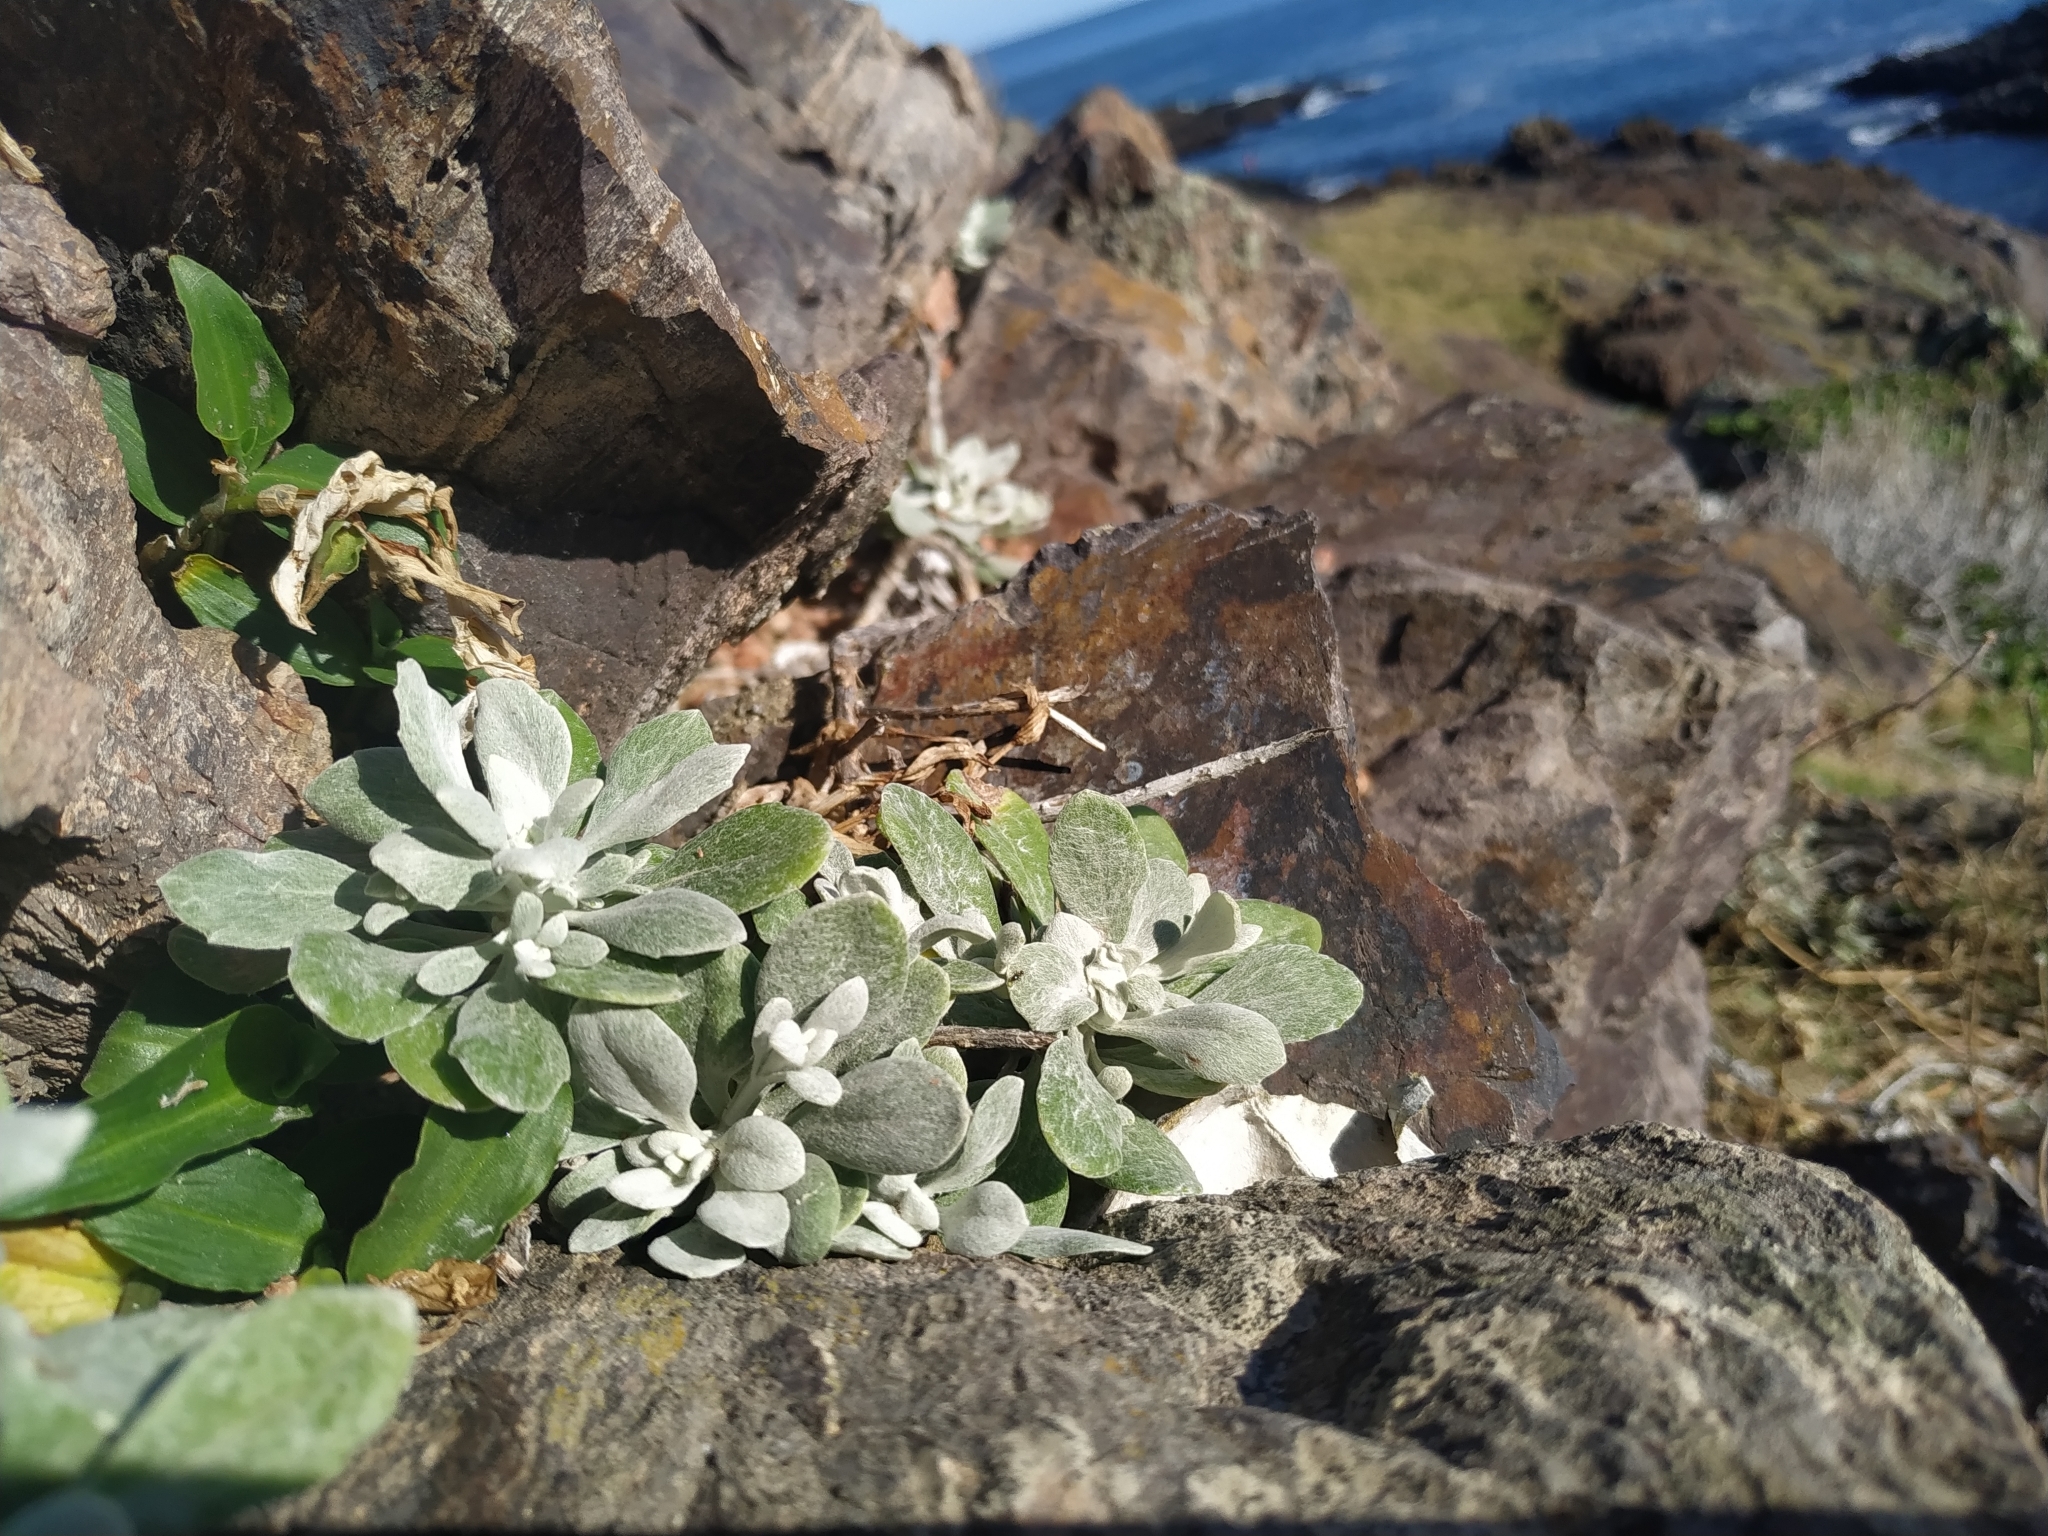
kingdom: Plantae
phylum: Tracheophyta
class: Magnoliopsida
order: Asterales
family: Asteraceae
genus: Senecio
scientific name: Senecio ostenii
